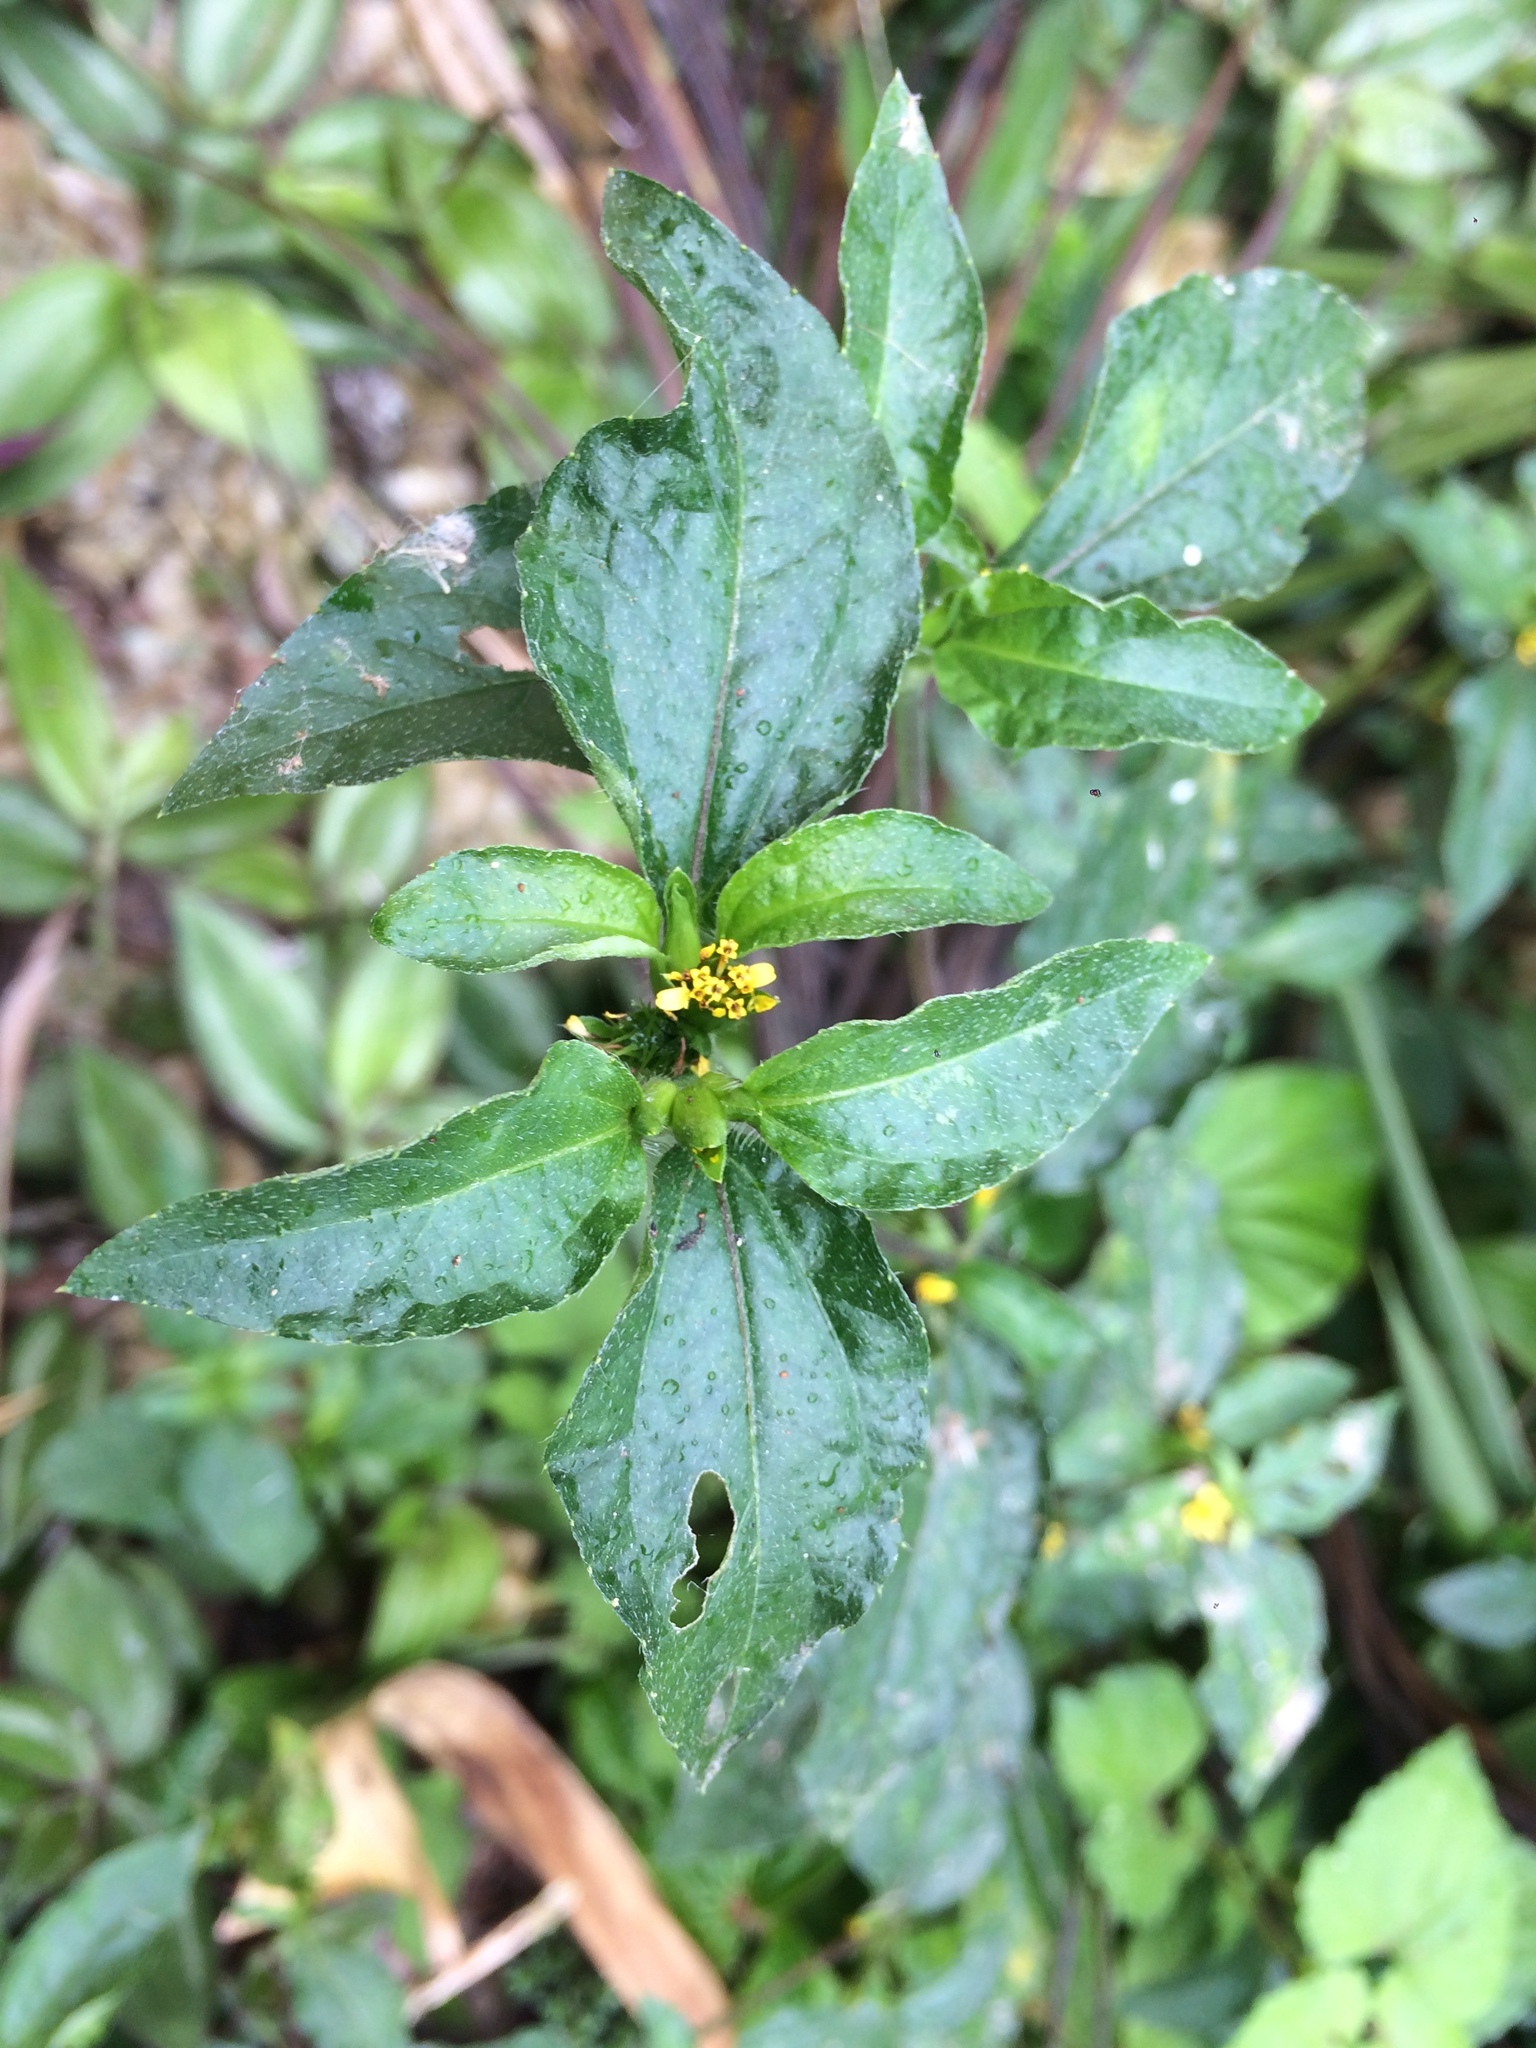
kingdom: Plantae
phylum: Tracheophyta
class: Magnoliopsida
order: Asterales
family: Asteraceae
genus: Synedrella
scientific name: Synedrella nodiflora
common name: Nodeweed
